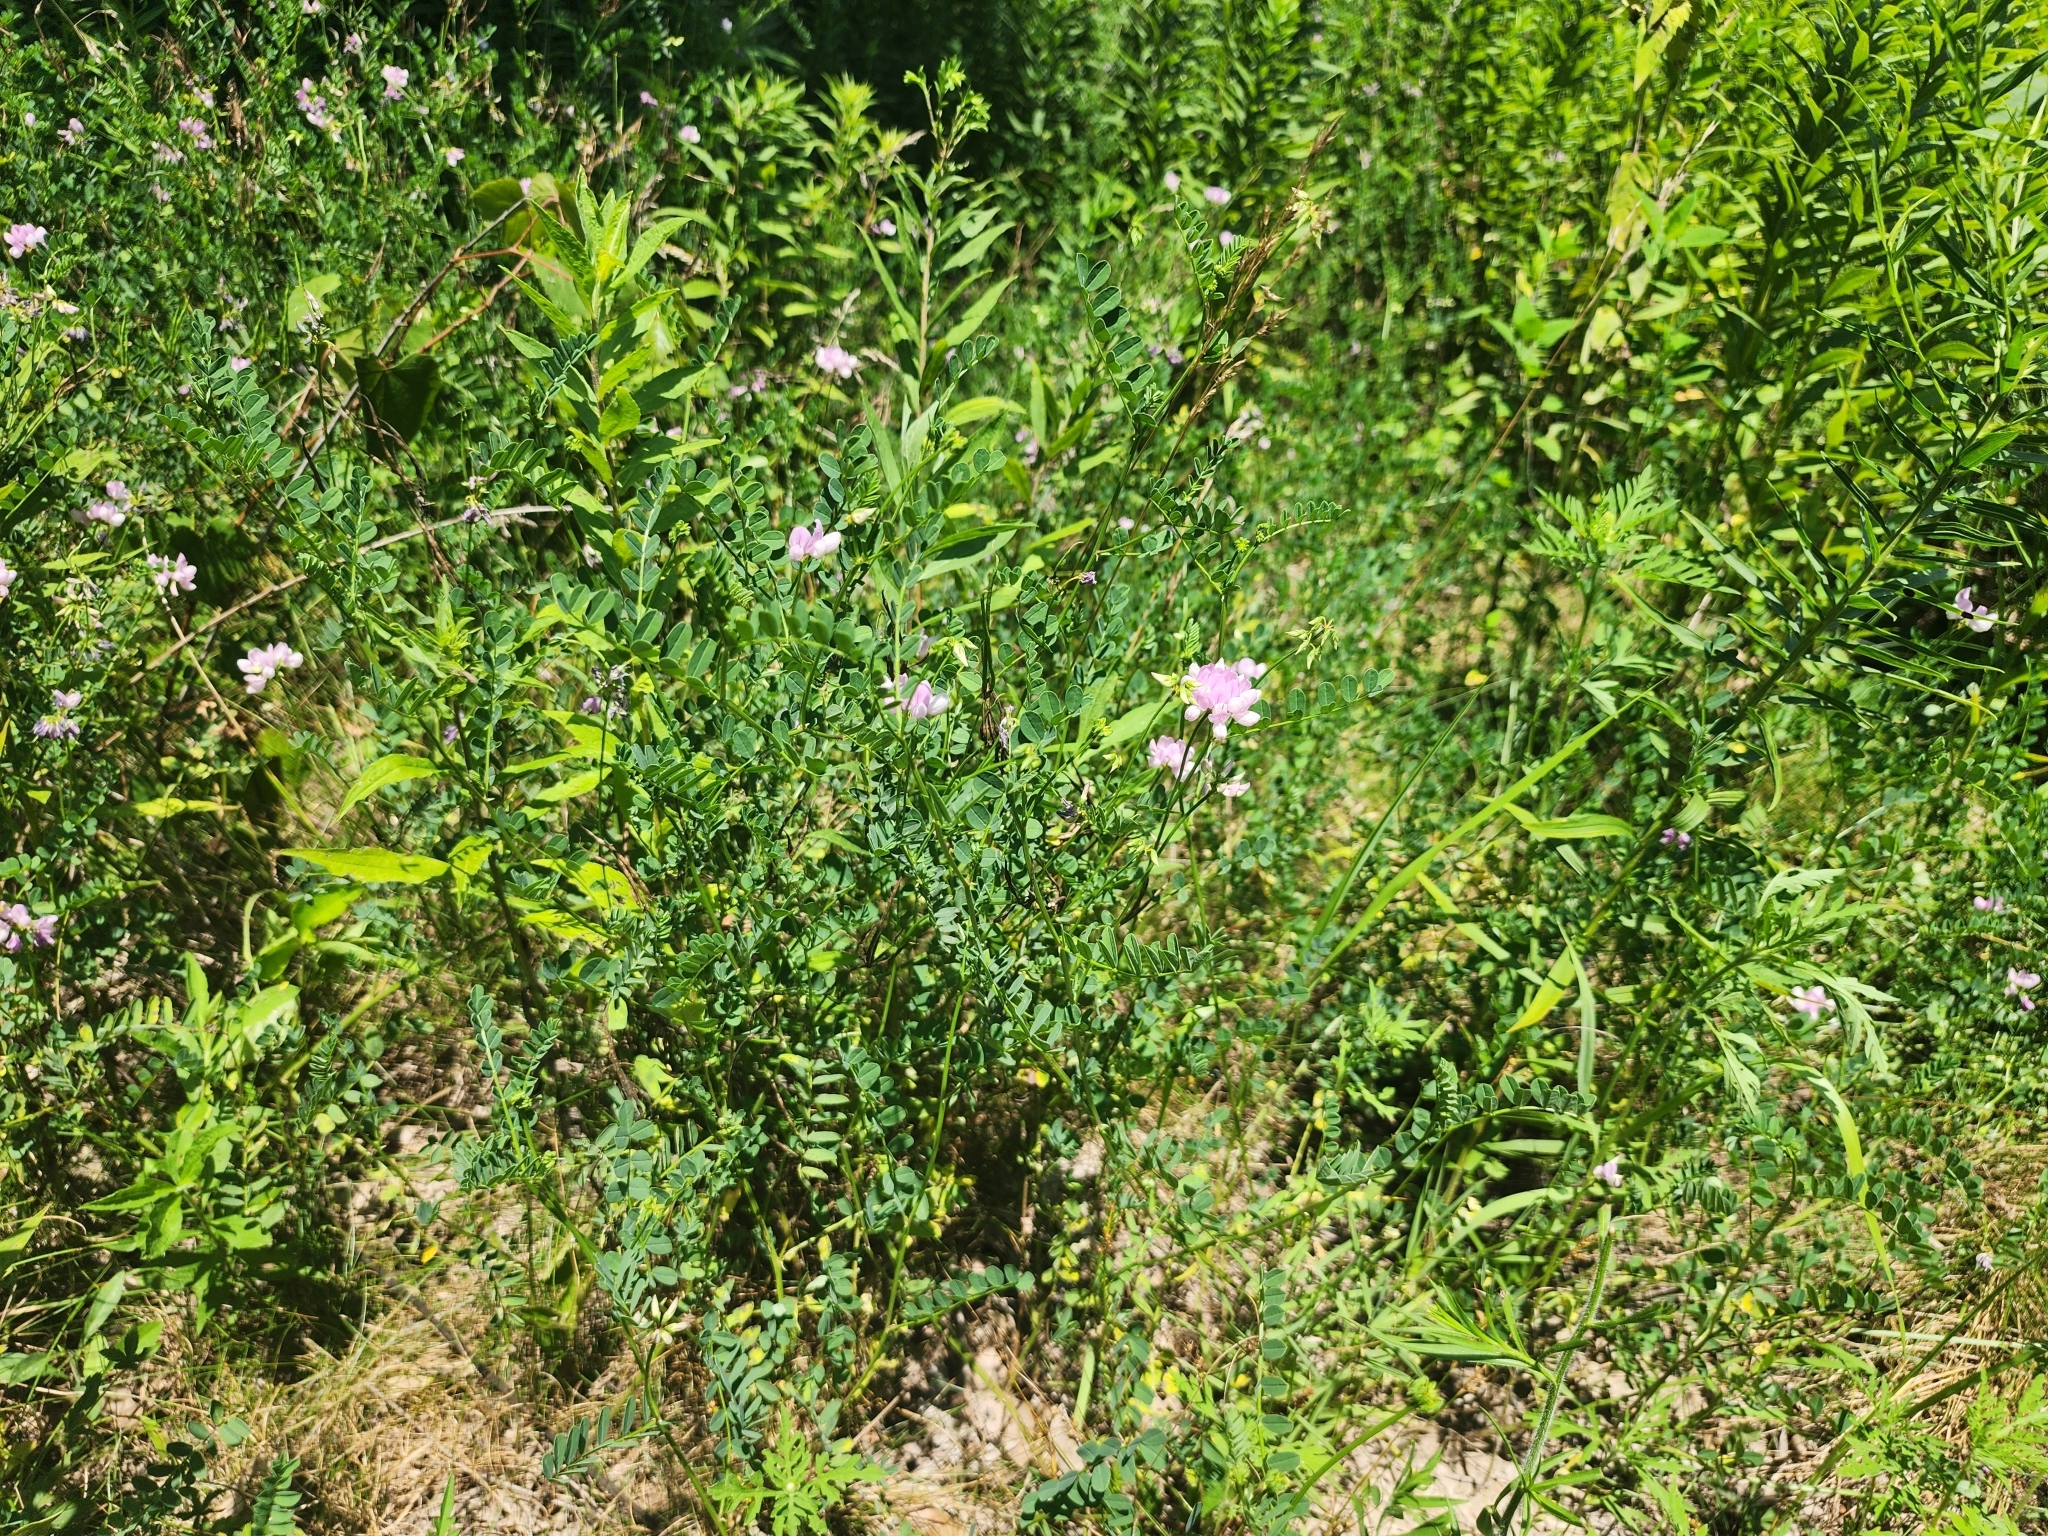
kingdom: Plantae
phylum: Tracheophyta
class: Magnoliopsida
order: Fabales
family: Fabaceae
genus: Coronilla
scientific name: Coronilla varia
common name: Crownvetch
